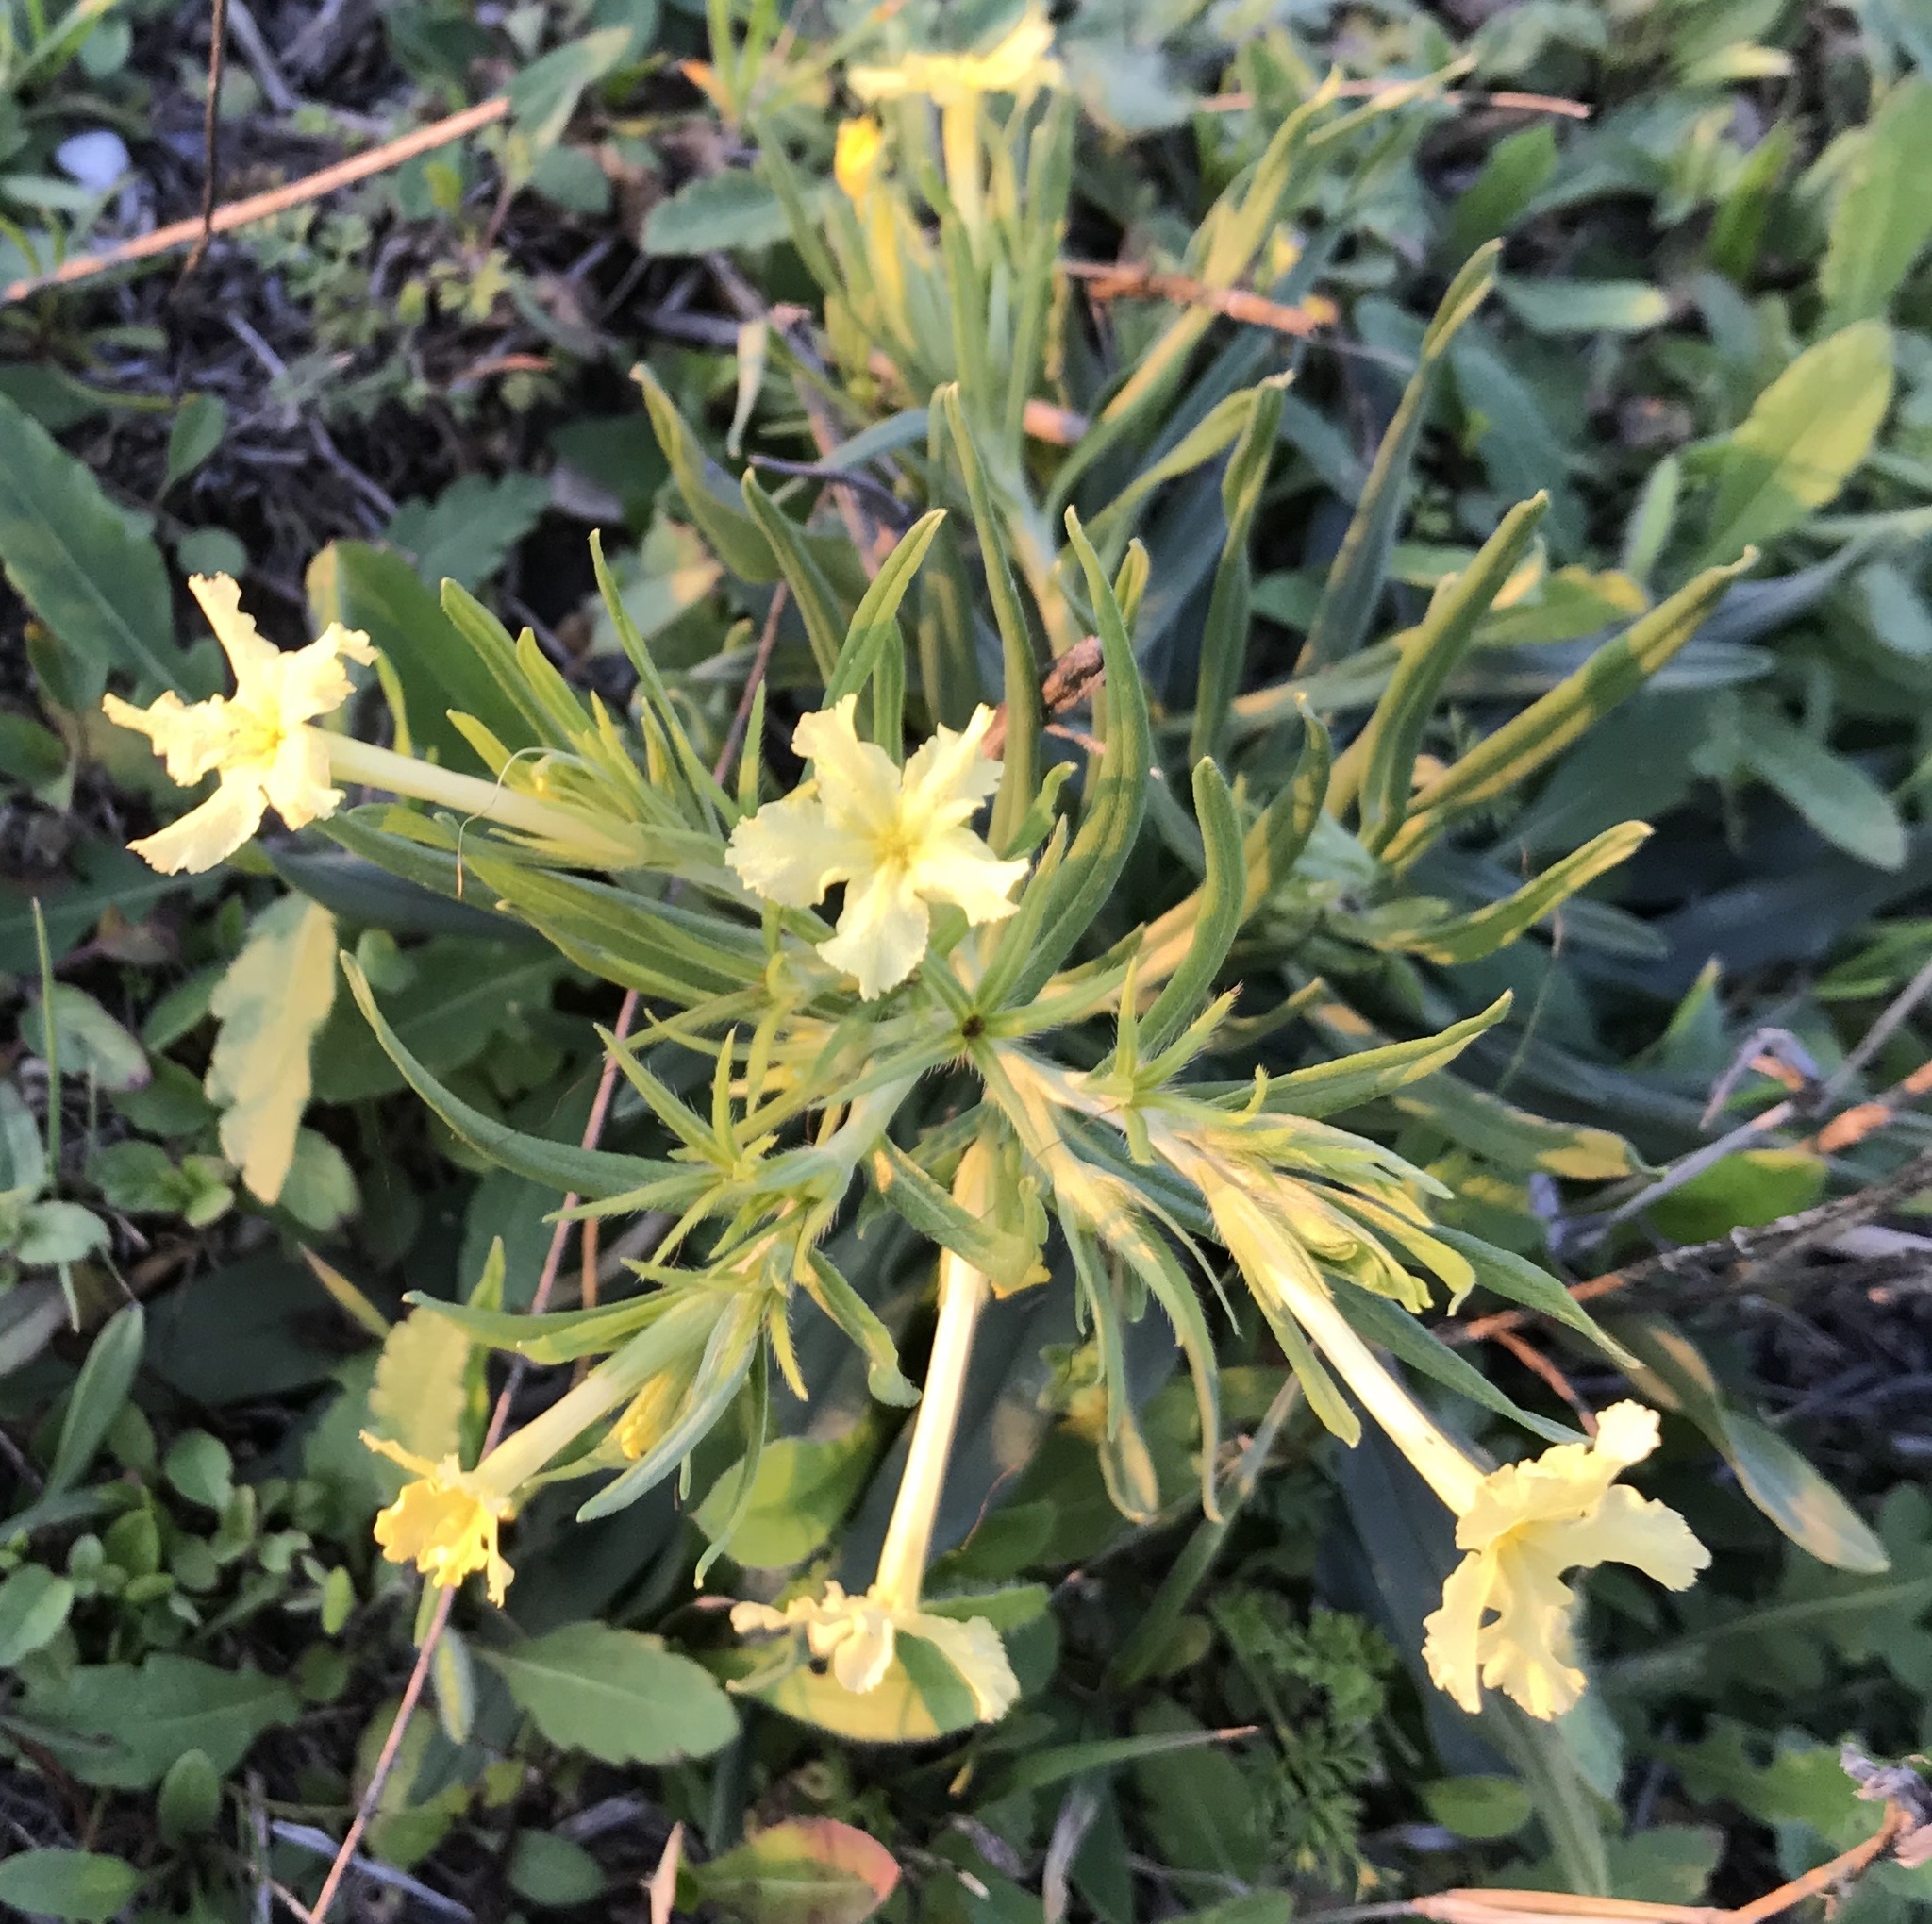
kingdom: Plantae
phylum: Tracheophyta
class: Magnoliopsida
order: Boraginales
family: Boraginaceae
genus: Lithospermum
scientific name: Lithospermum incisum
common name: Fringed gromwell
